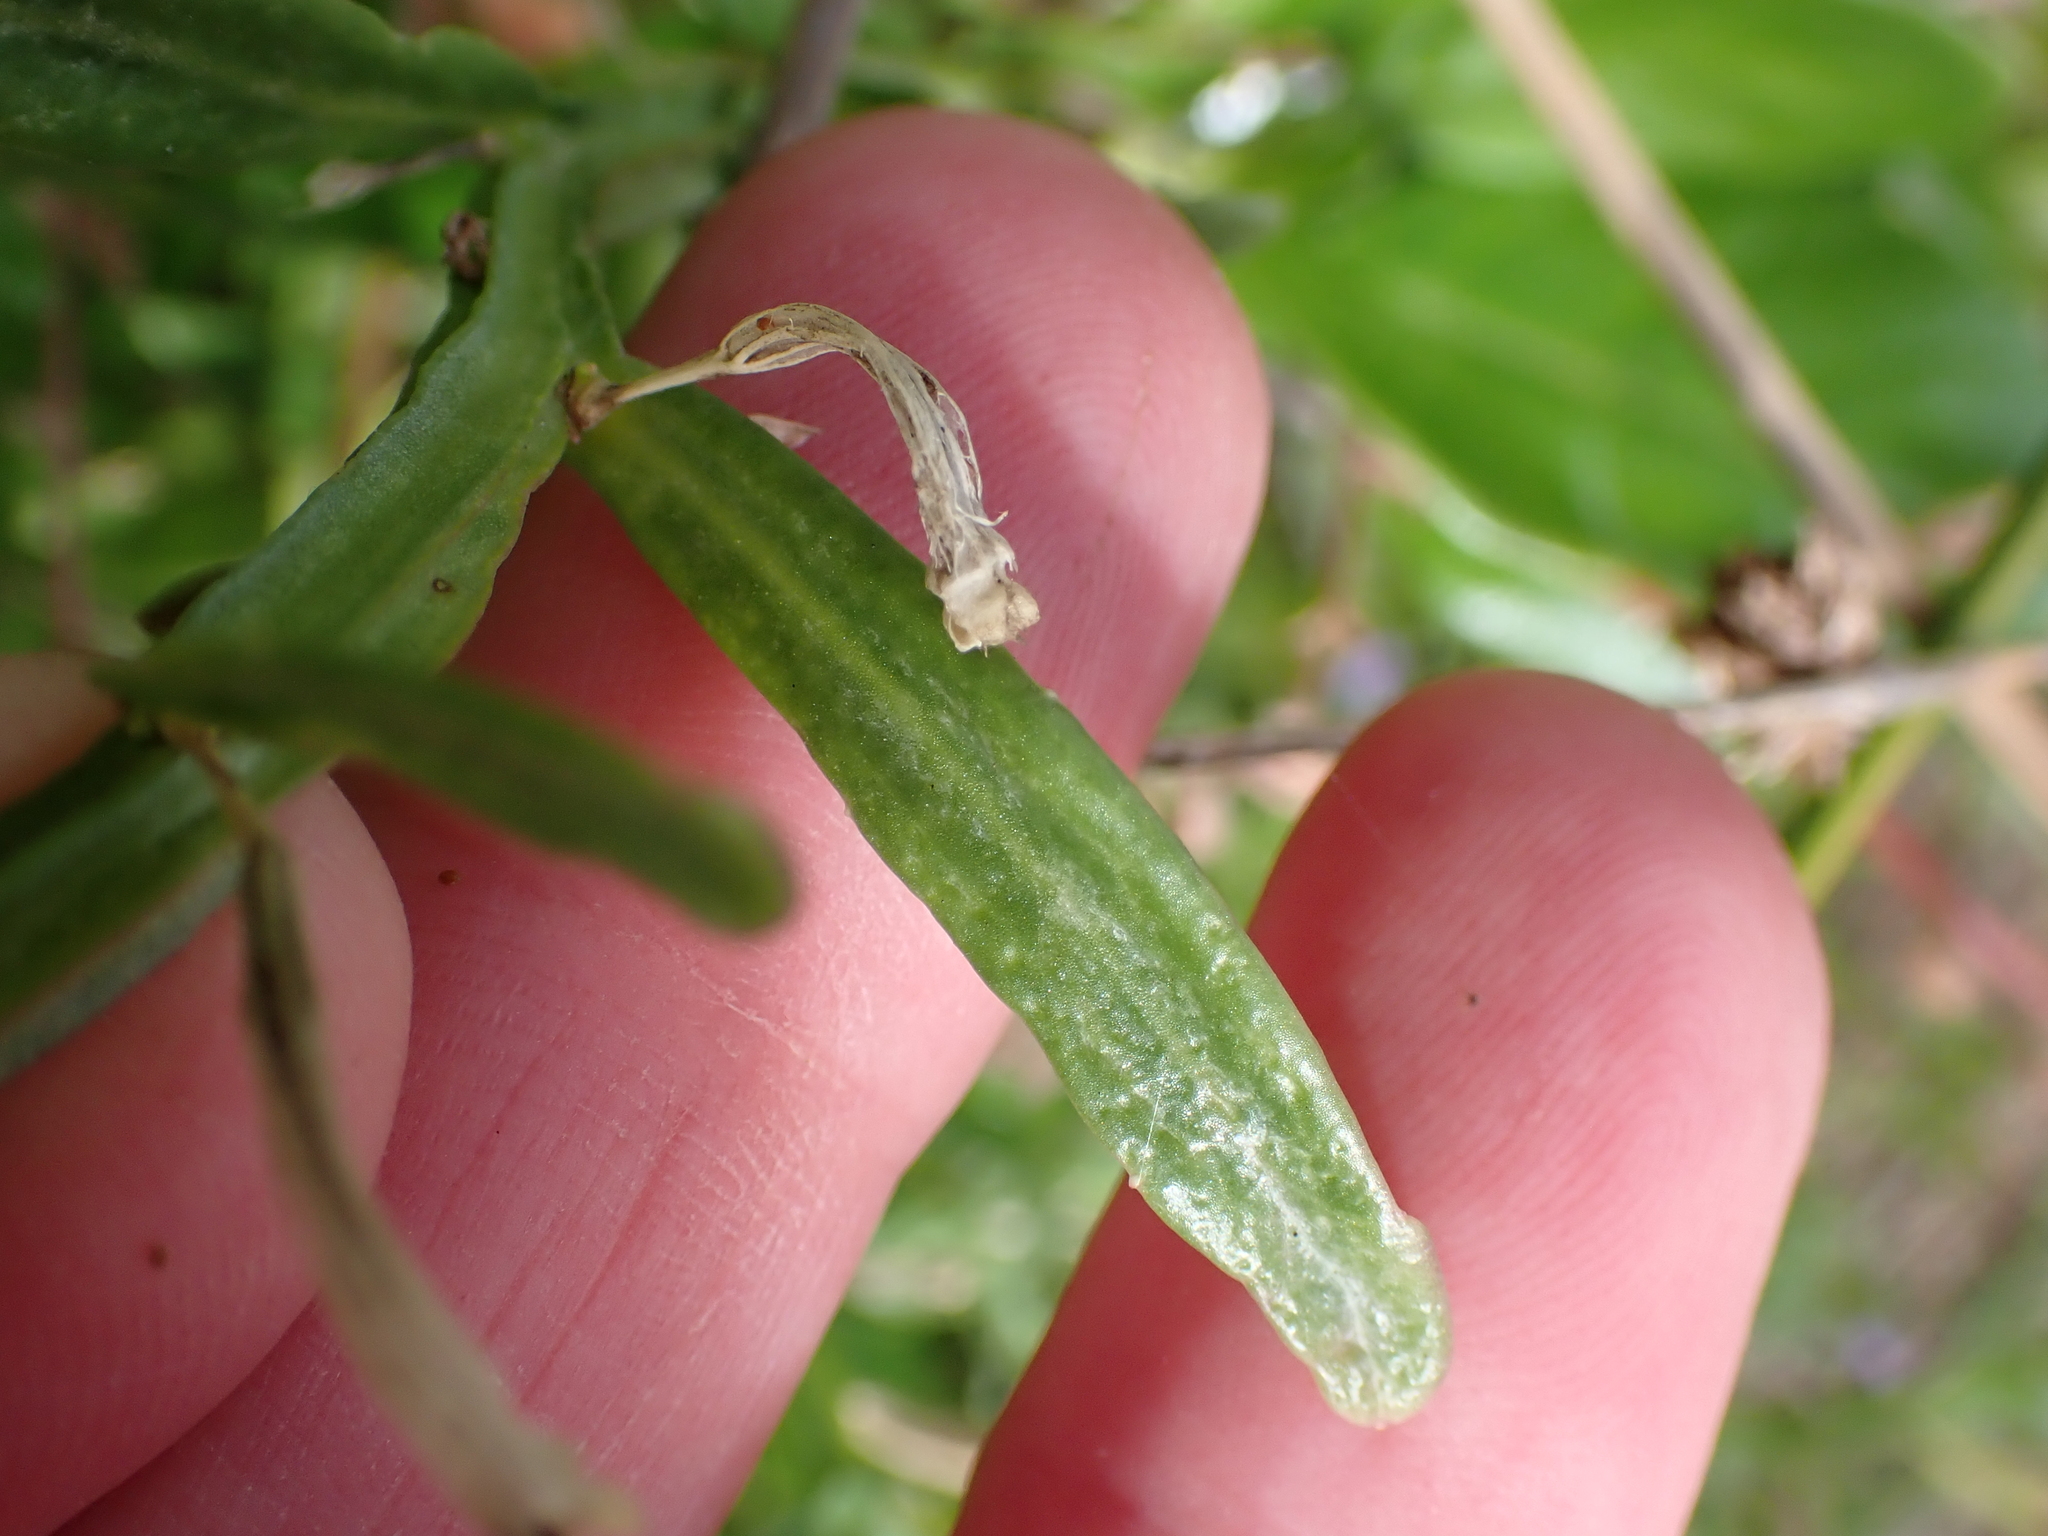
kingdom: Plantae
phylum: Tracheophyta
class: Magnoliopsida
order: Asterales
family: Campanulaceae
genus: Lobelia
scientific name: Lobelia anceps
